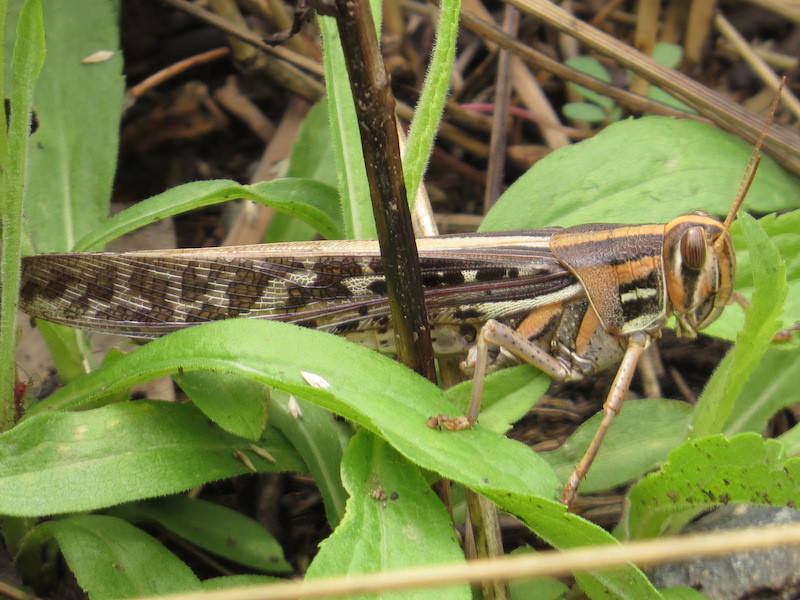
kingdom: Animalia
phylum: Arthropoda
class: Insecta
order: Orthoptera
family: Acrididae
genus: Schistocerca
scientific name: Schistocerca americana
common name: American bird locust
